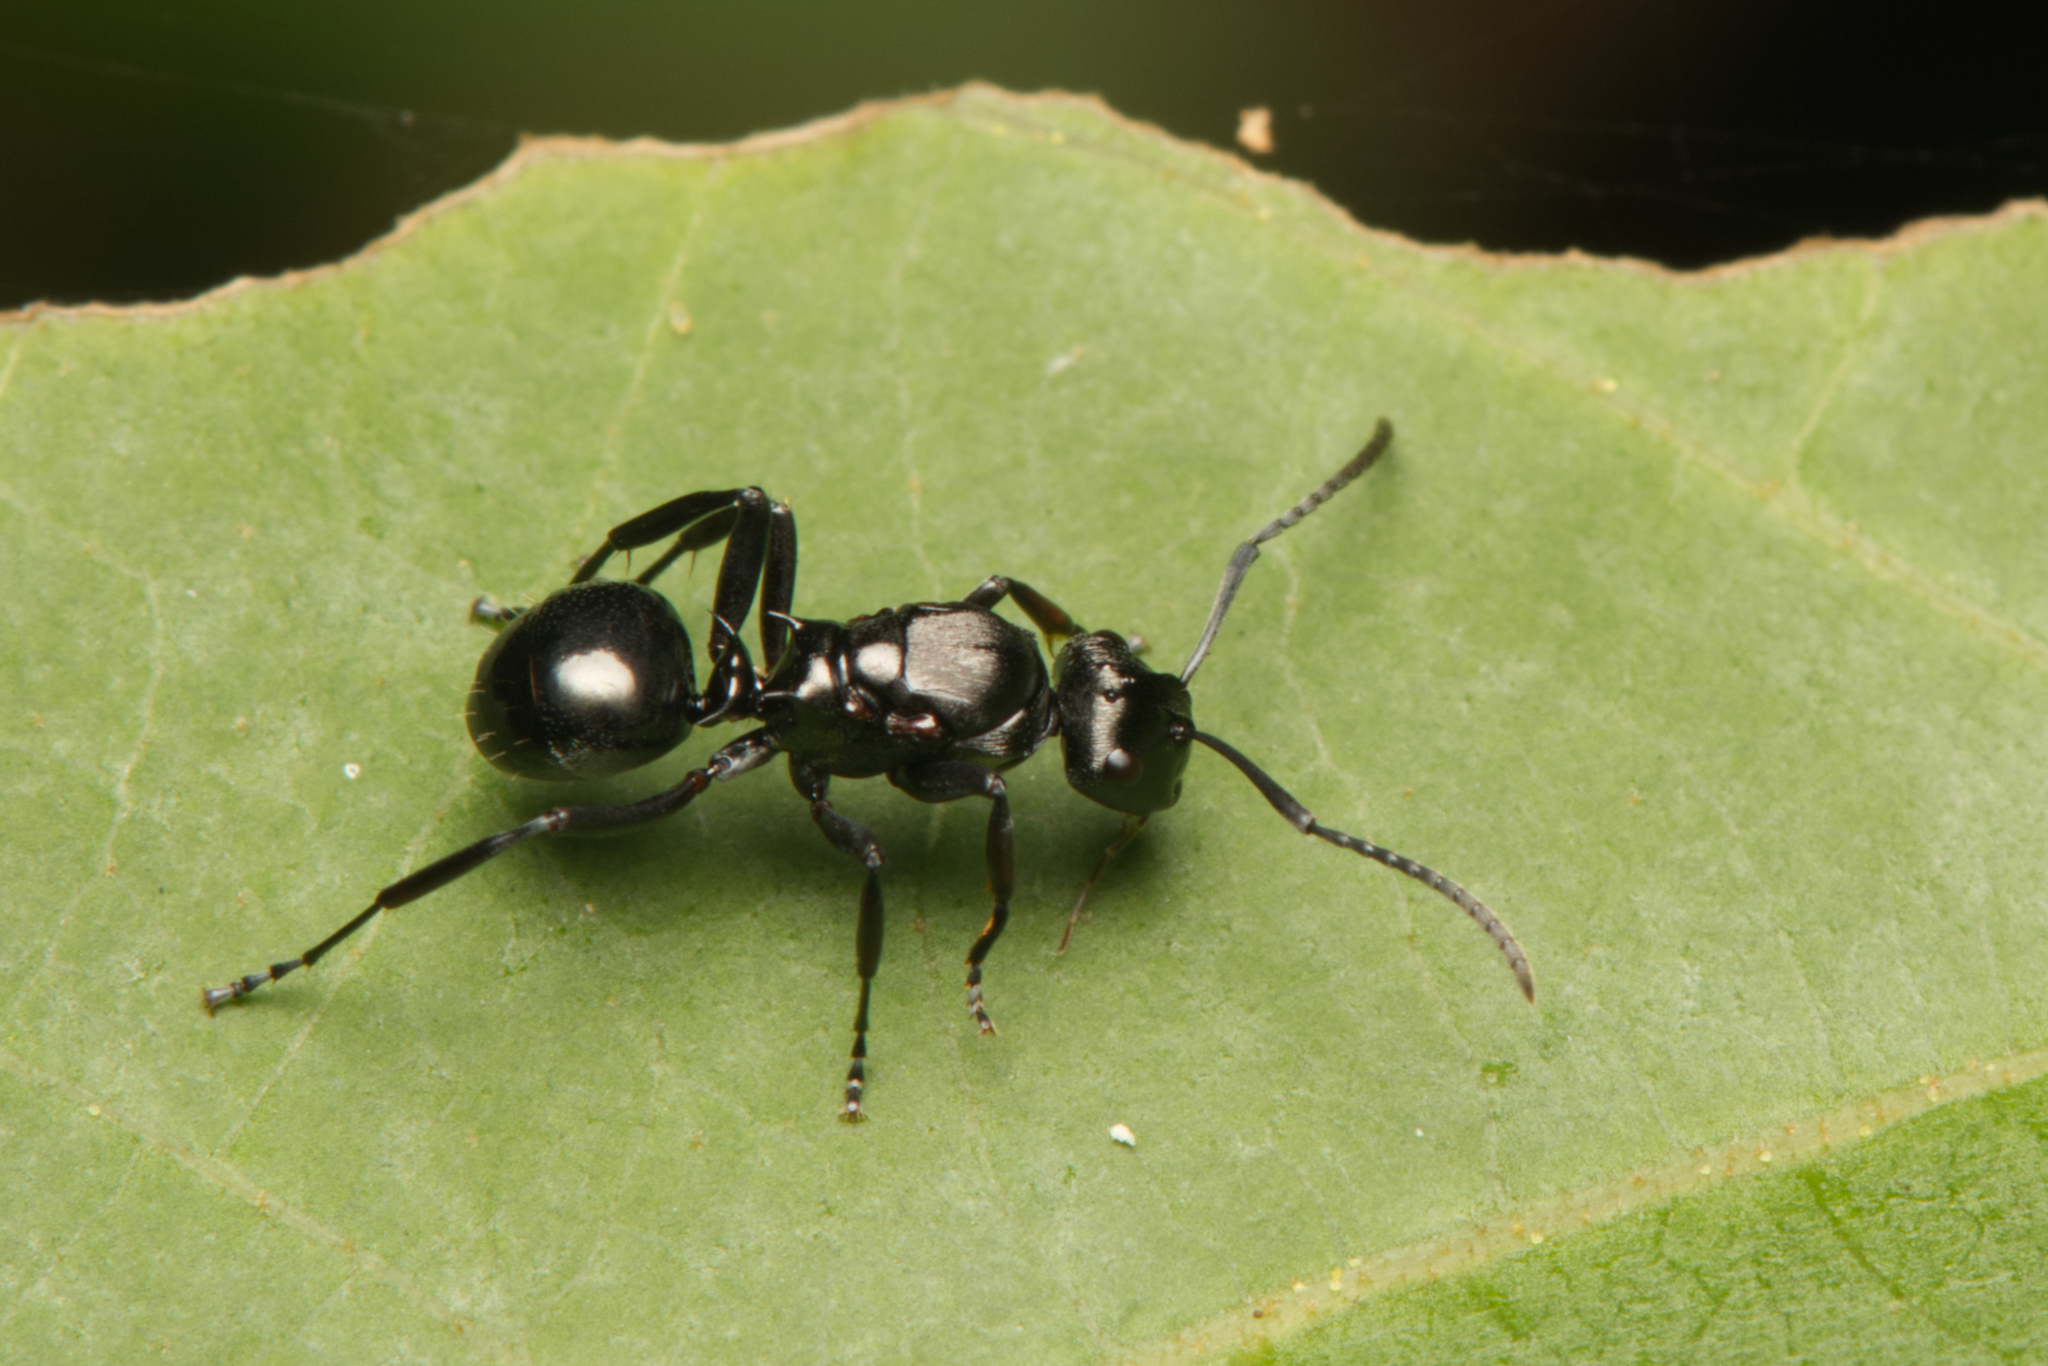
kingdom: Animalia
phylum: Arthropoda
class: Insecta
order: Hymenoptera
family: Formicidae
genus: Polyrhachis
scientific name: Polyrhachis clio
